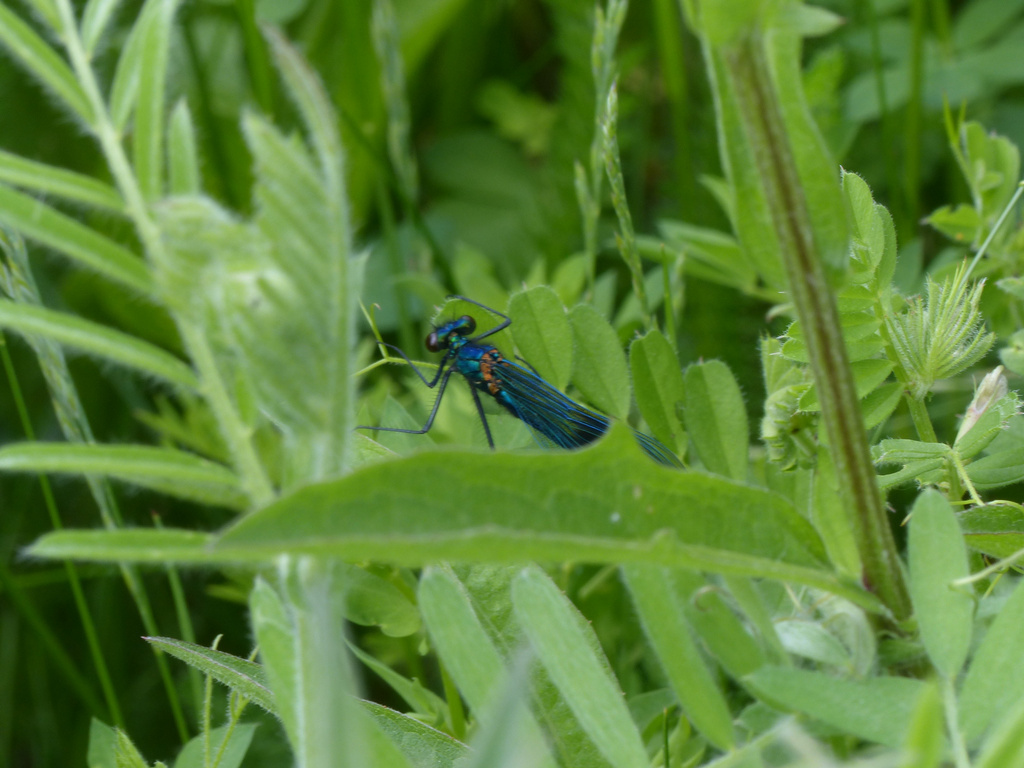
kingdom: Animalia
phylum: Arthropoda
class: Insecta
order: Odonata
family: Calopterygidae
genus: Calopteryx
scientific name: Calopteryx splendens
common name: Banded demoiselle
